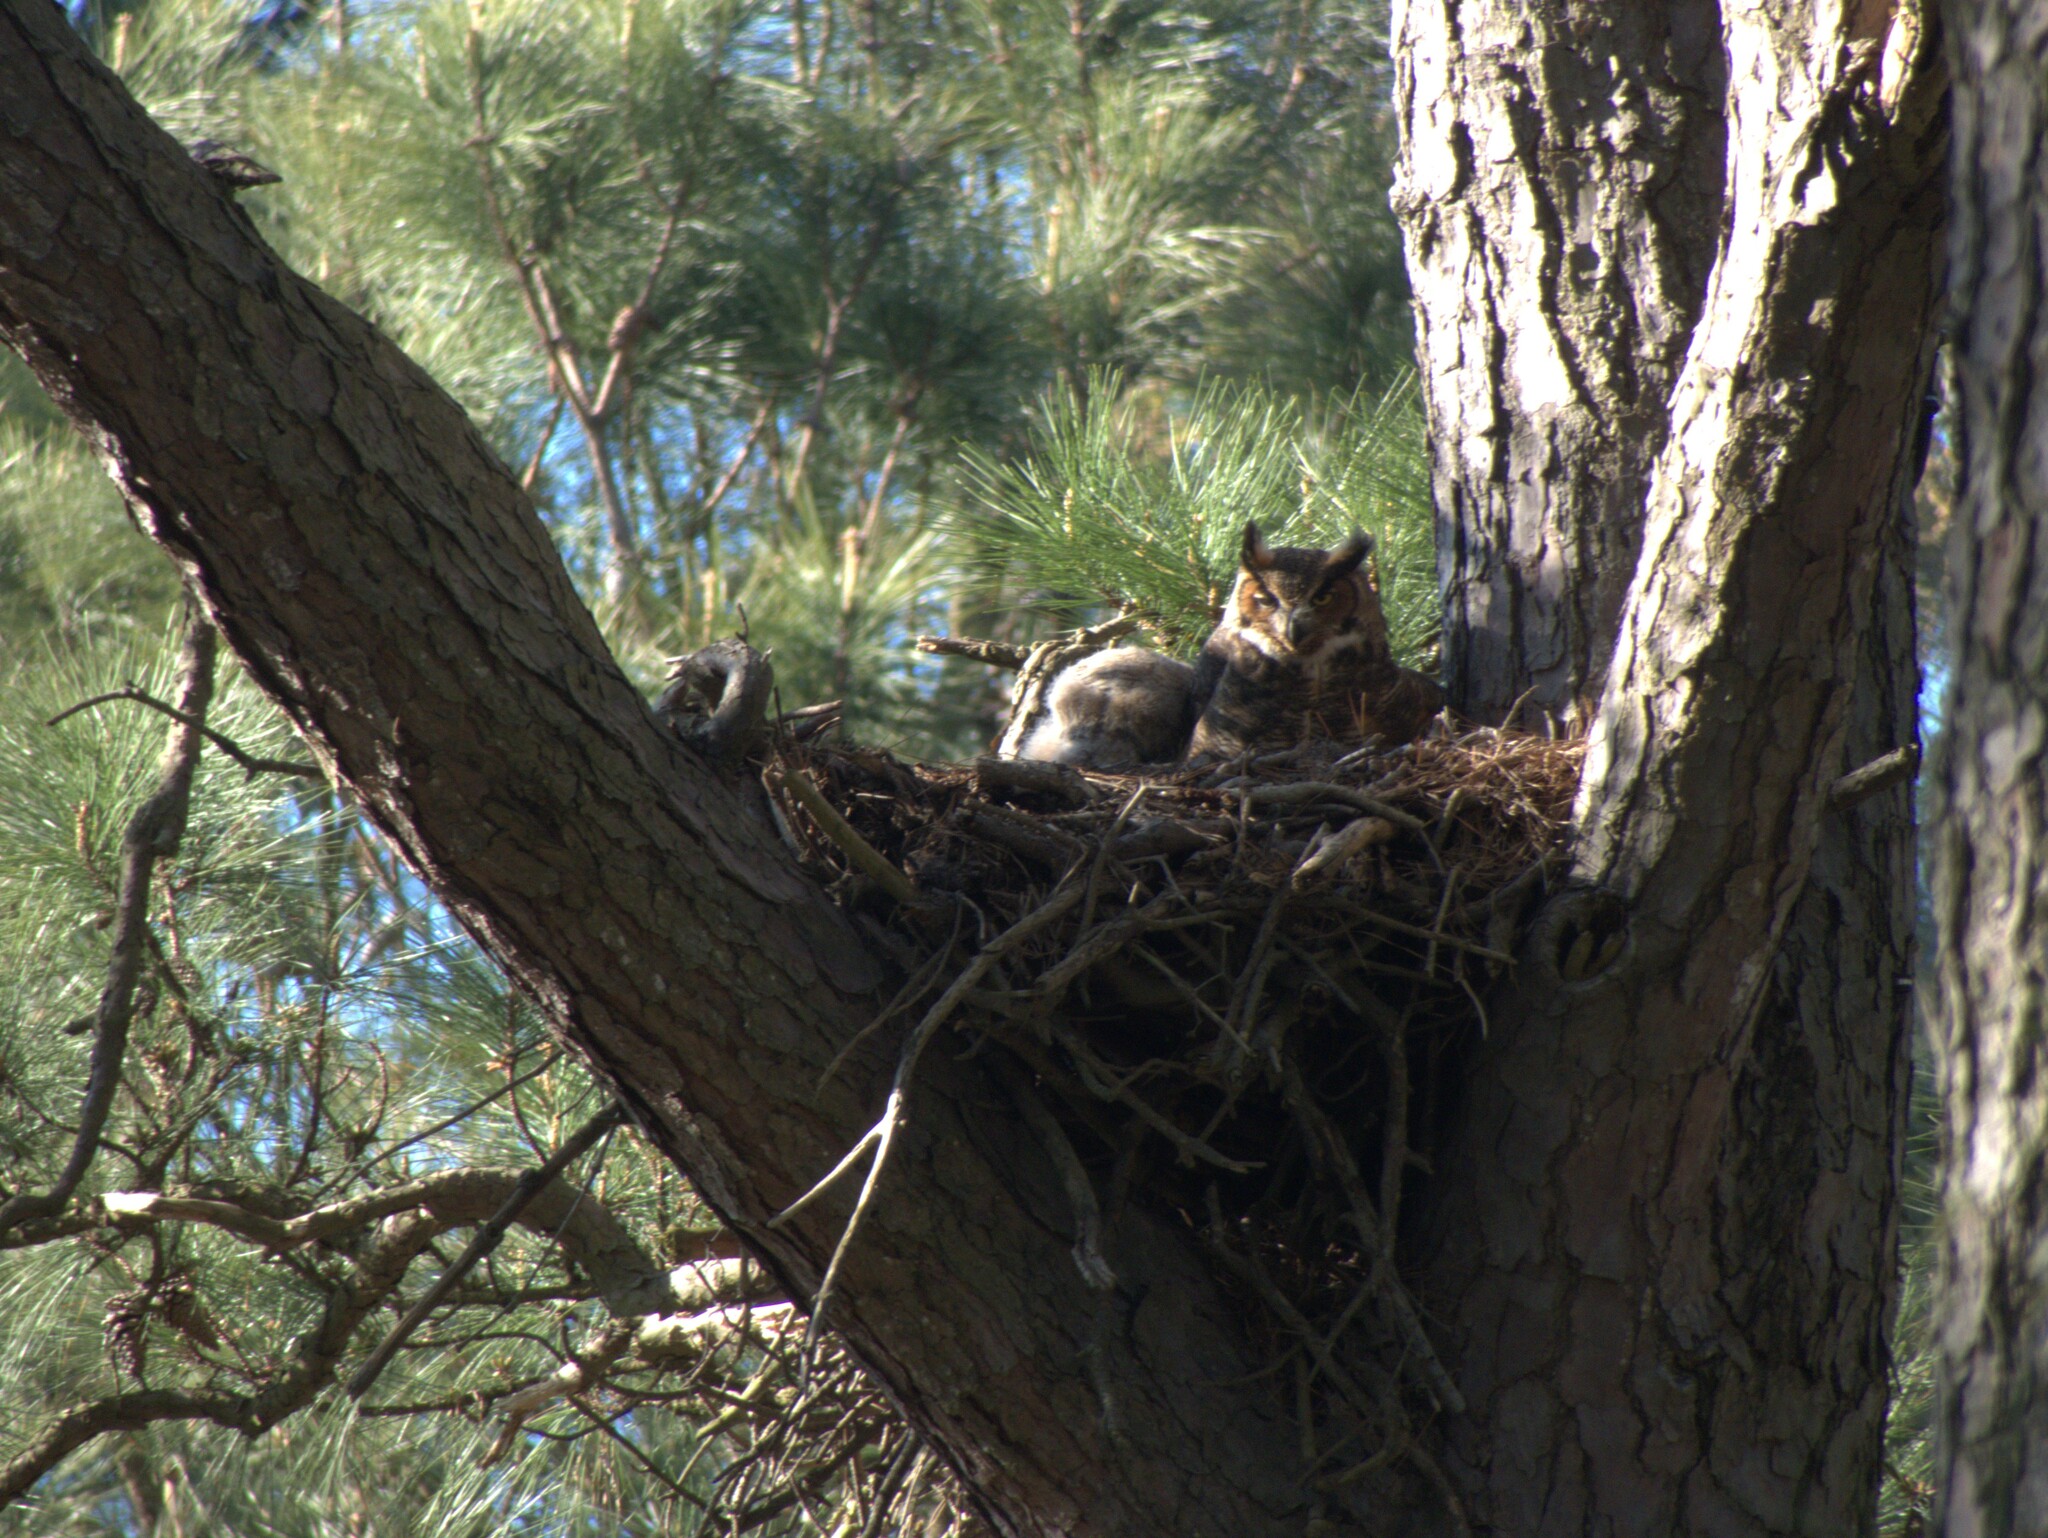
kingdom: Animalia
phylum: Chordata
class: Aves
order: Strigiformes
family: Strigidae
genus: Bubo
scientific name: Bubo virginianus
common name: Great horned owl
